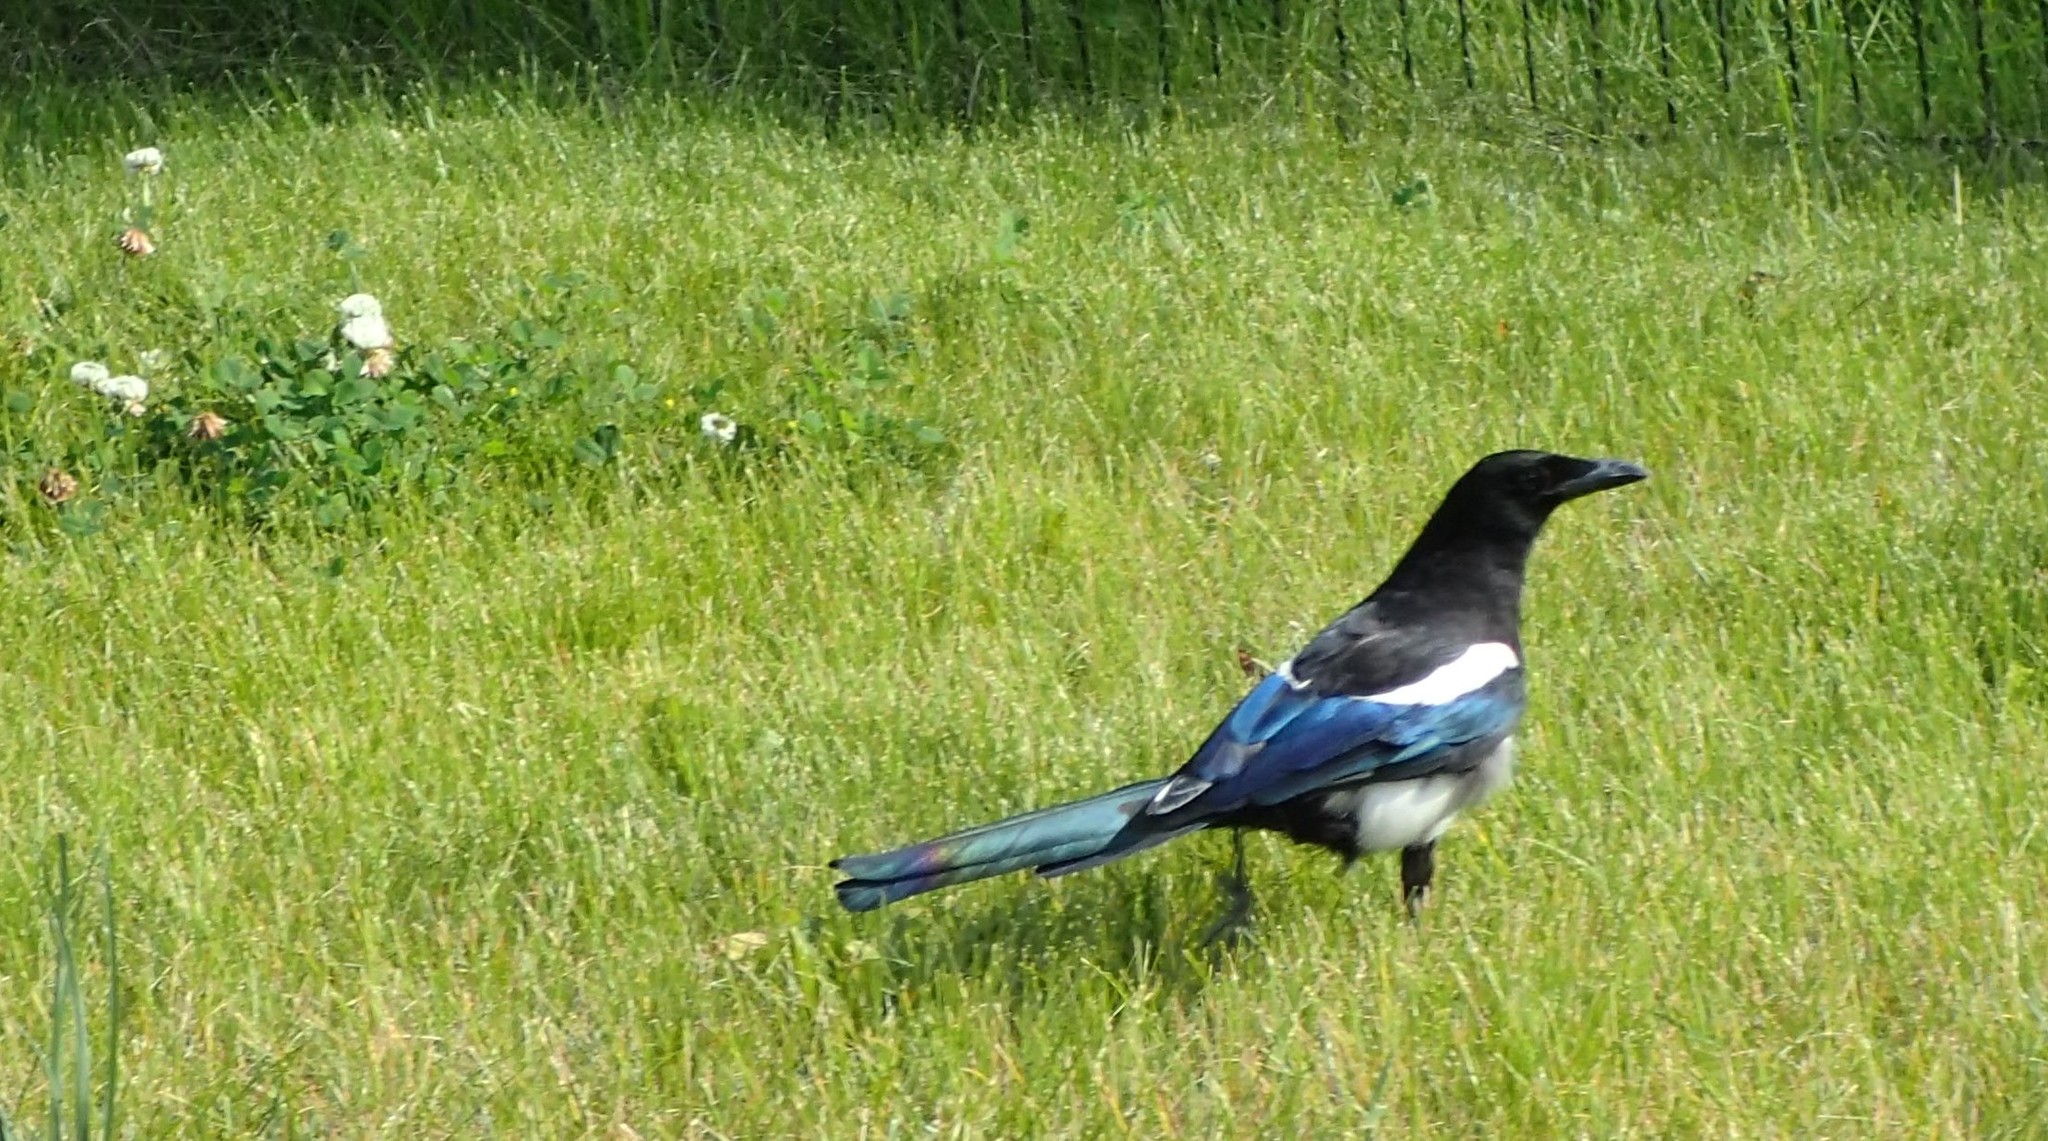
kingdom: Animalia
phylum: Chordata
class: Aves
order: Passeriformes
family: Corvidae
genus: Pica
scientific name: Pica hudsonia
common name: Black-billed magpie
